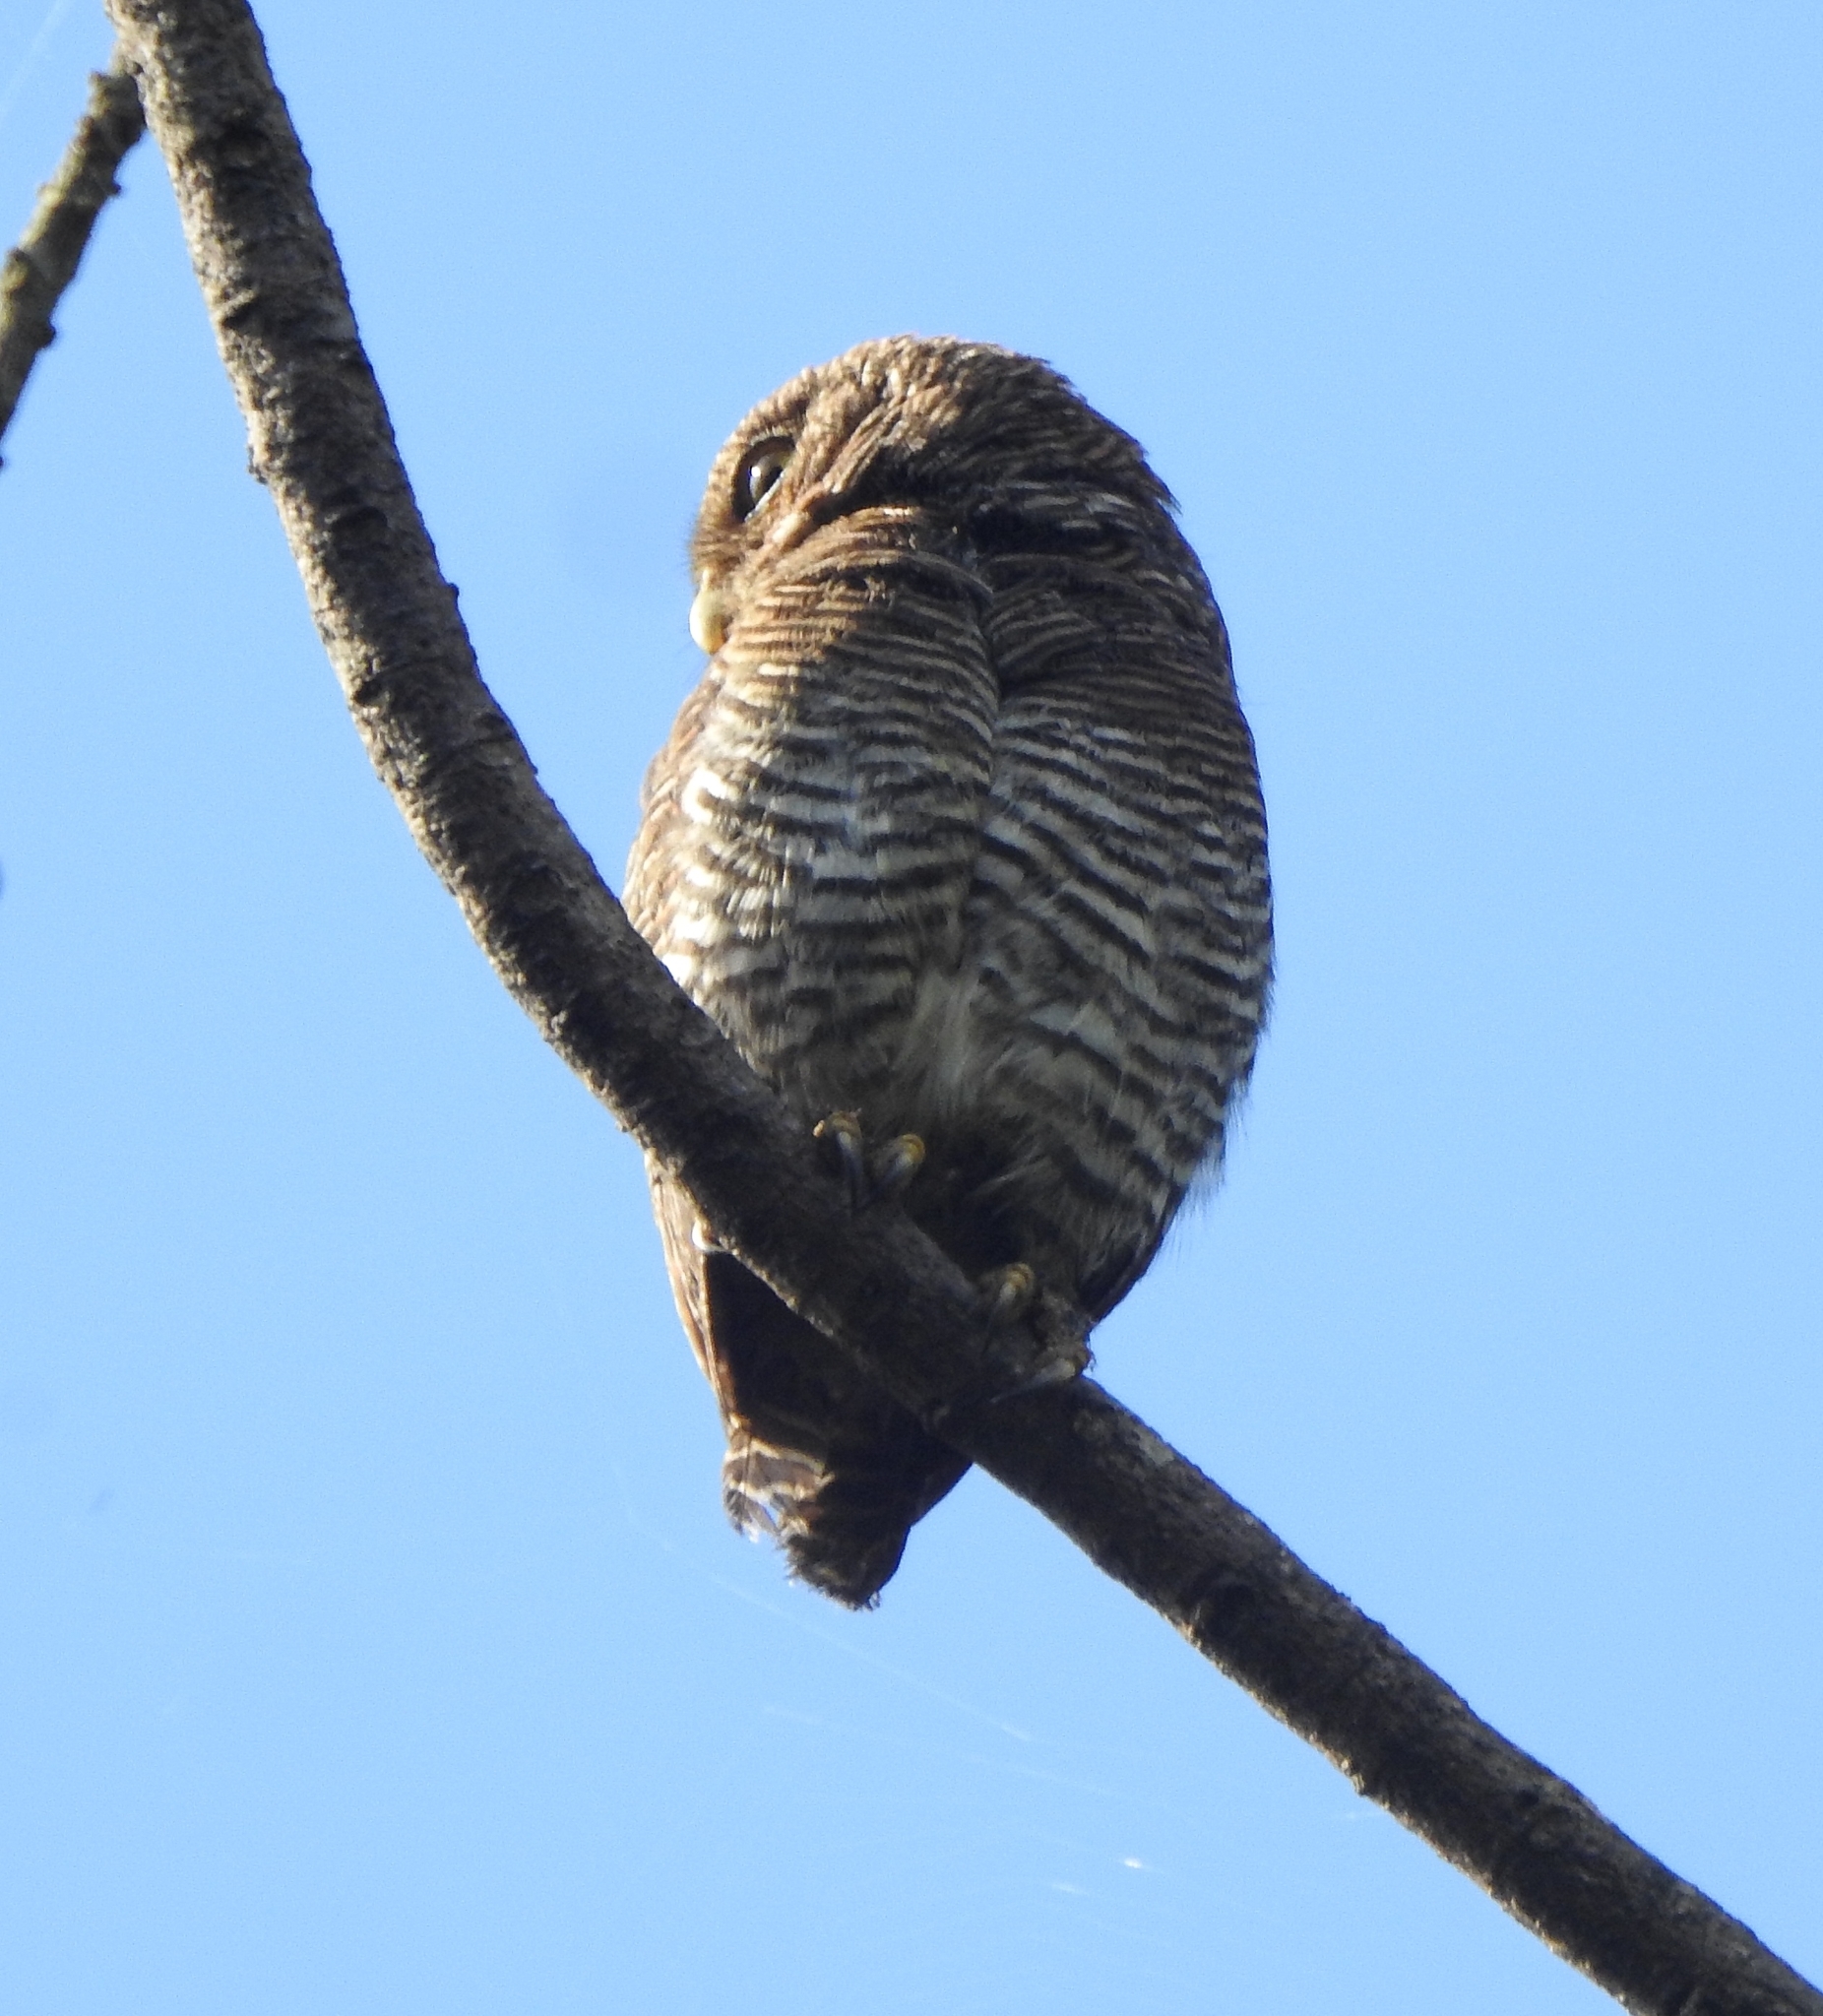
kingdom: Animalia
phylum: Chordata
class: Aves
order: Strigiformes
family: Strigidae
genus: Glaucidium
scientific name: Glaucidium radiatum
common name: Jungle owlet
